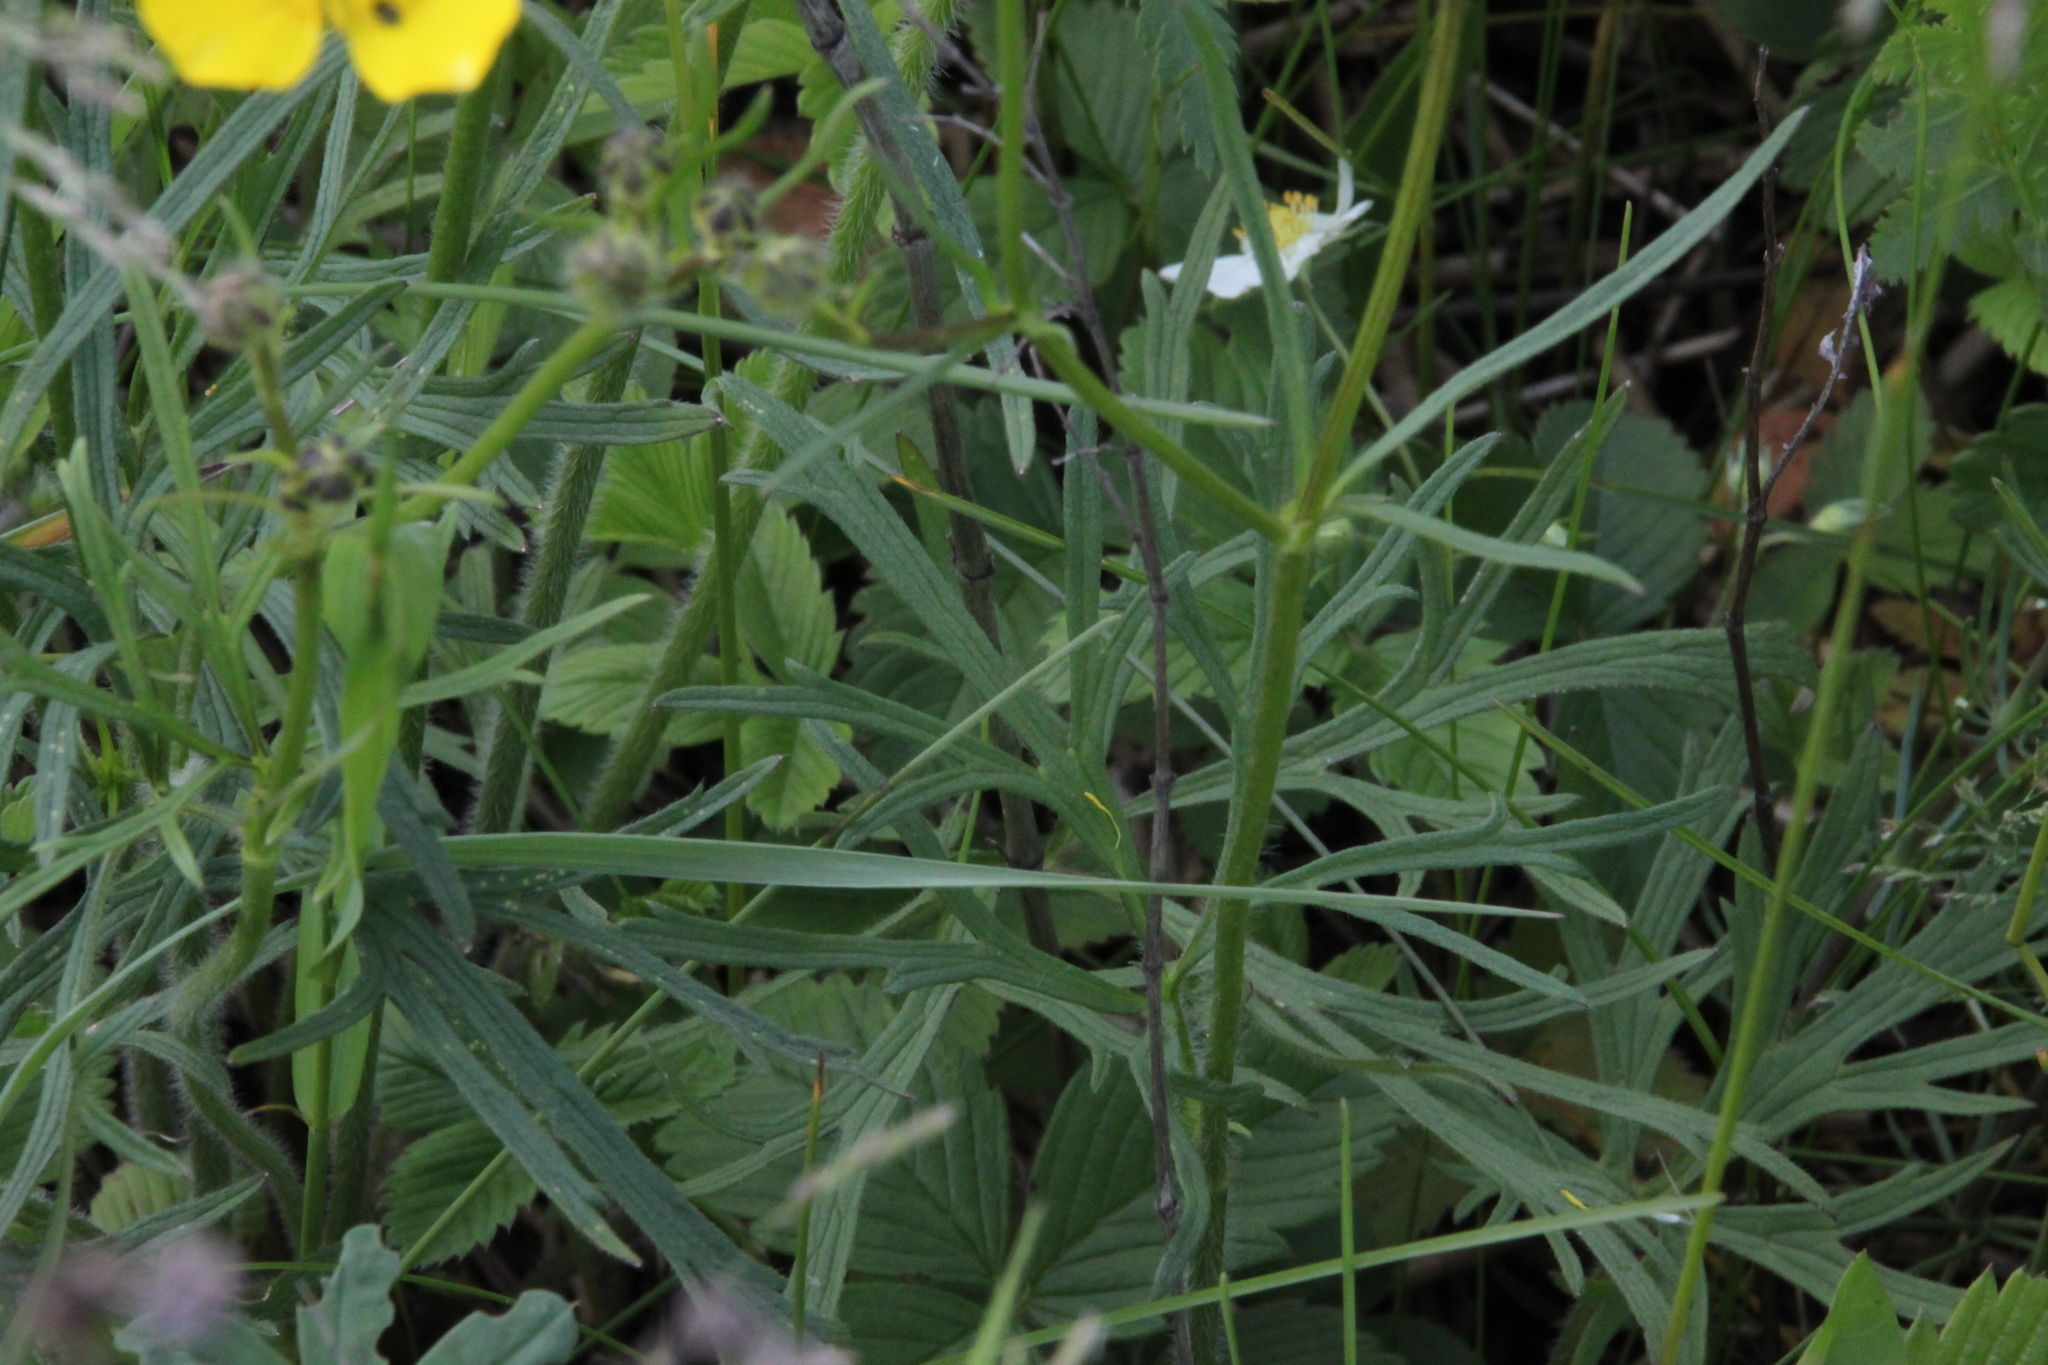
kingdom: Plantae
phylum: Tracheophyta
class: Magnoliopsida
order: Ranunculales
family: Ranunculaceae
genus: Ranunculus
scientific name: Ranunculus polyanthemos
